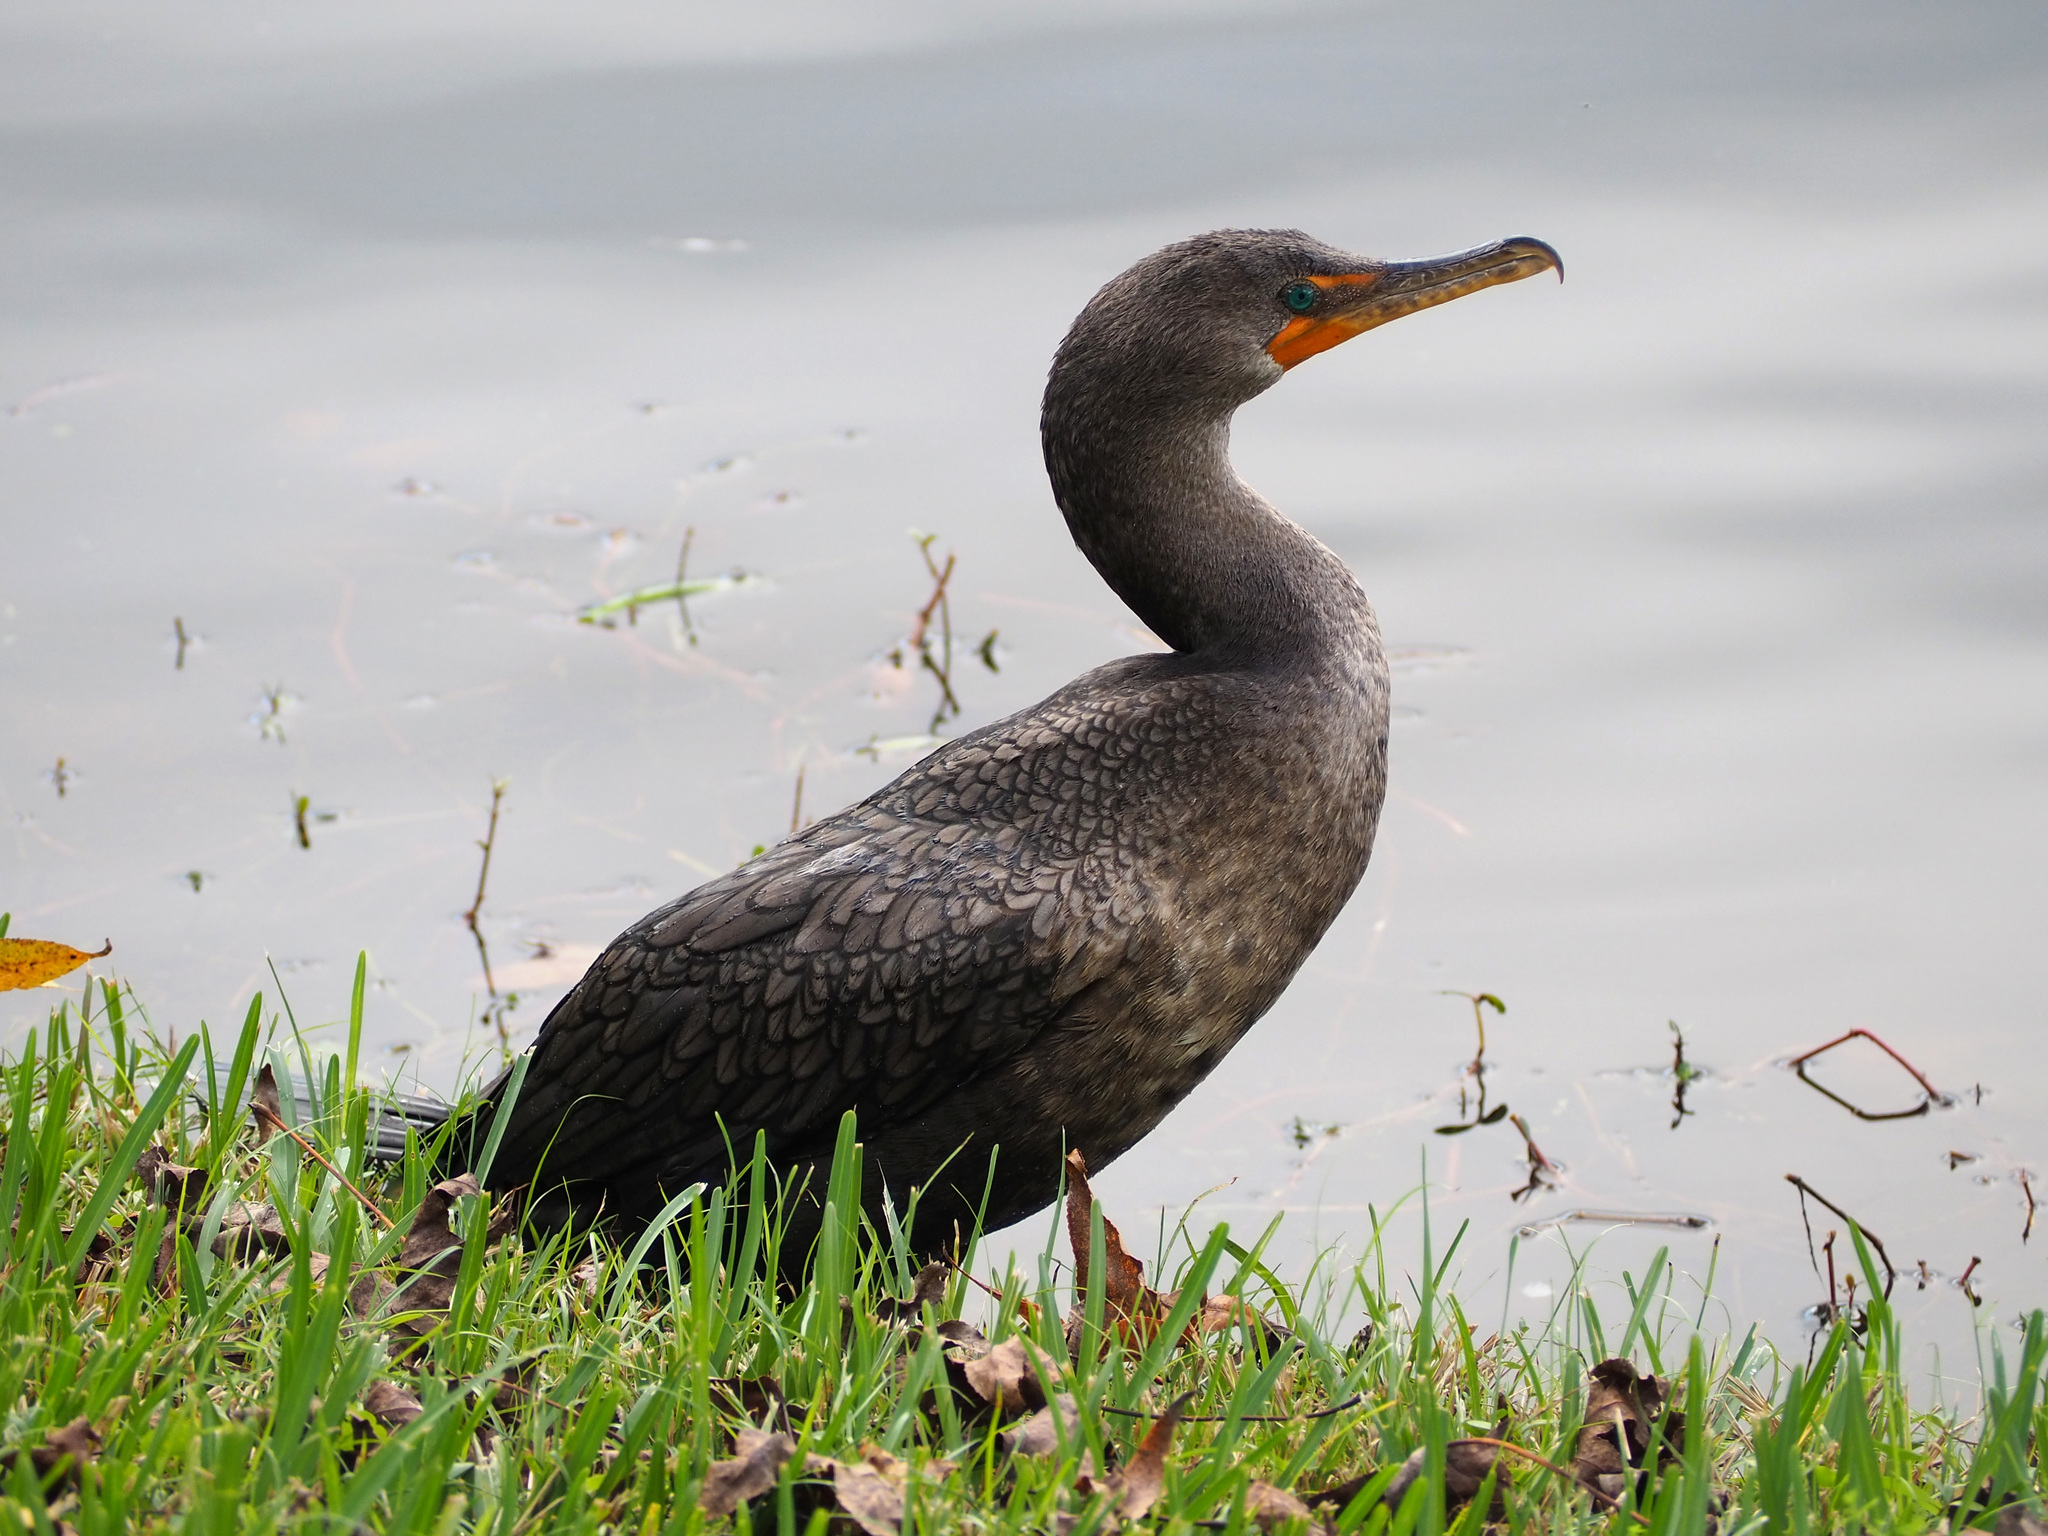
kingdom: Animalia
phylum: Chordata
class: Aves
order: Suliformes
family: Phalacrocoracidae
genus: Phalacrocorax
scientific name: Phalacrocorax auritus
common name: Double-crested cormorant
